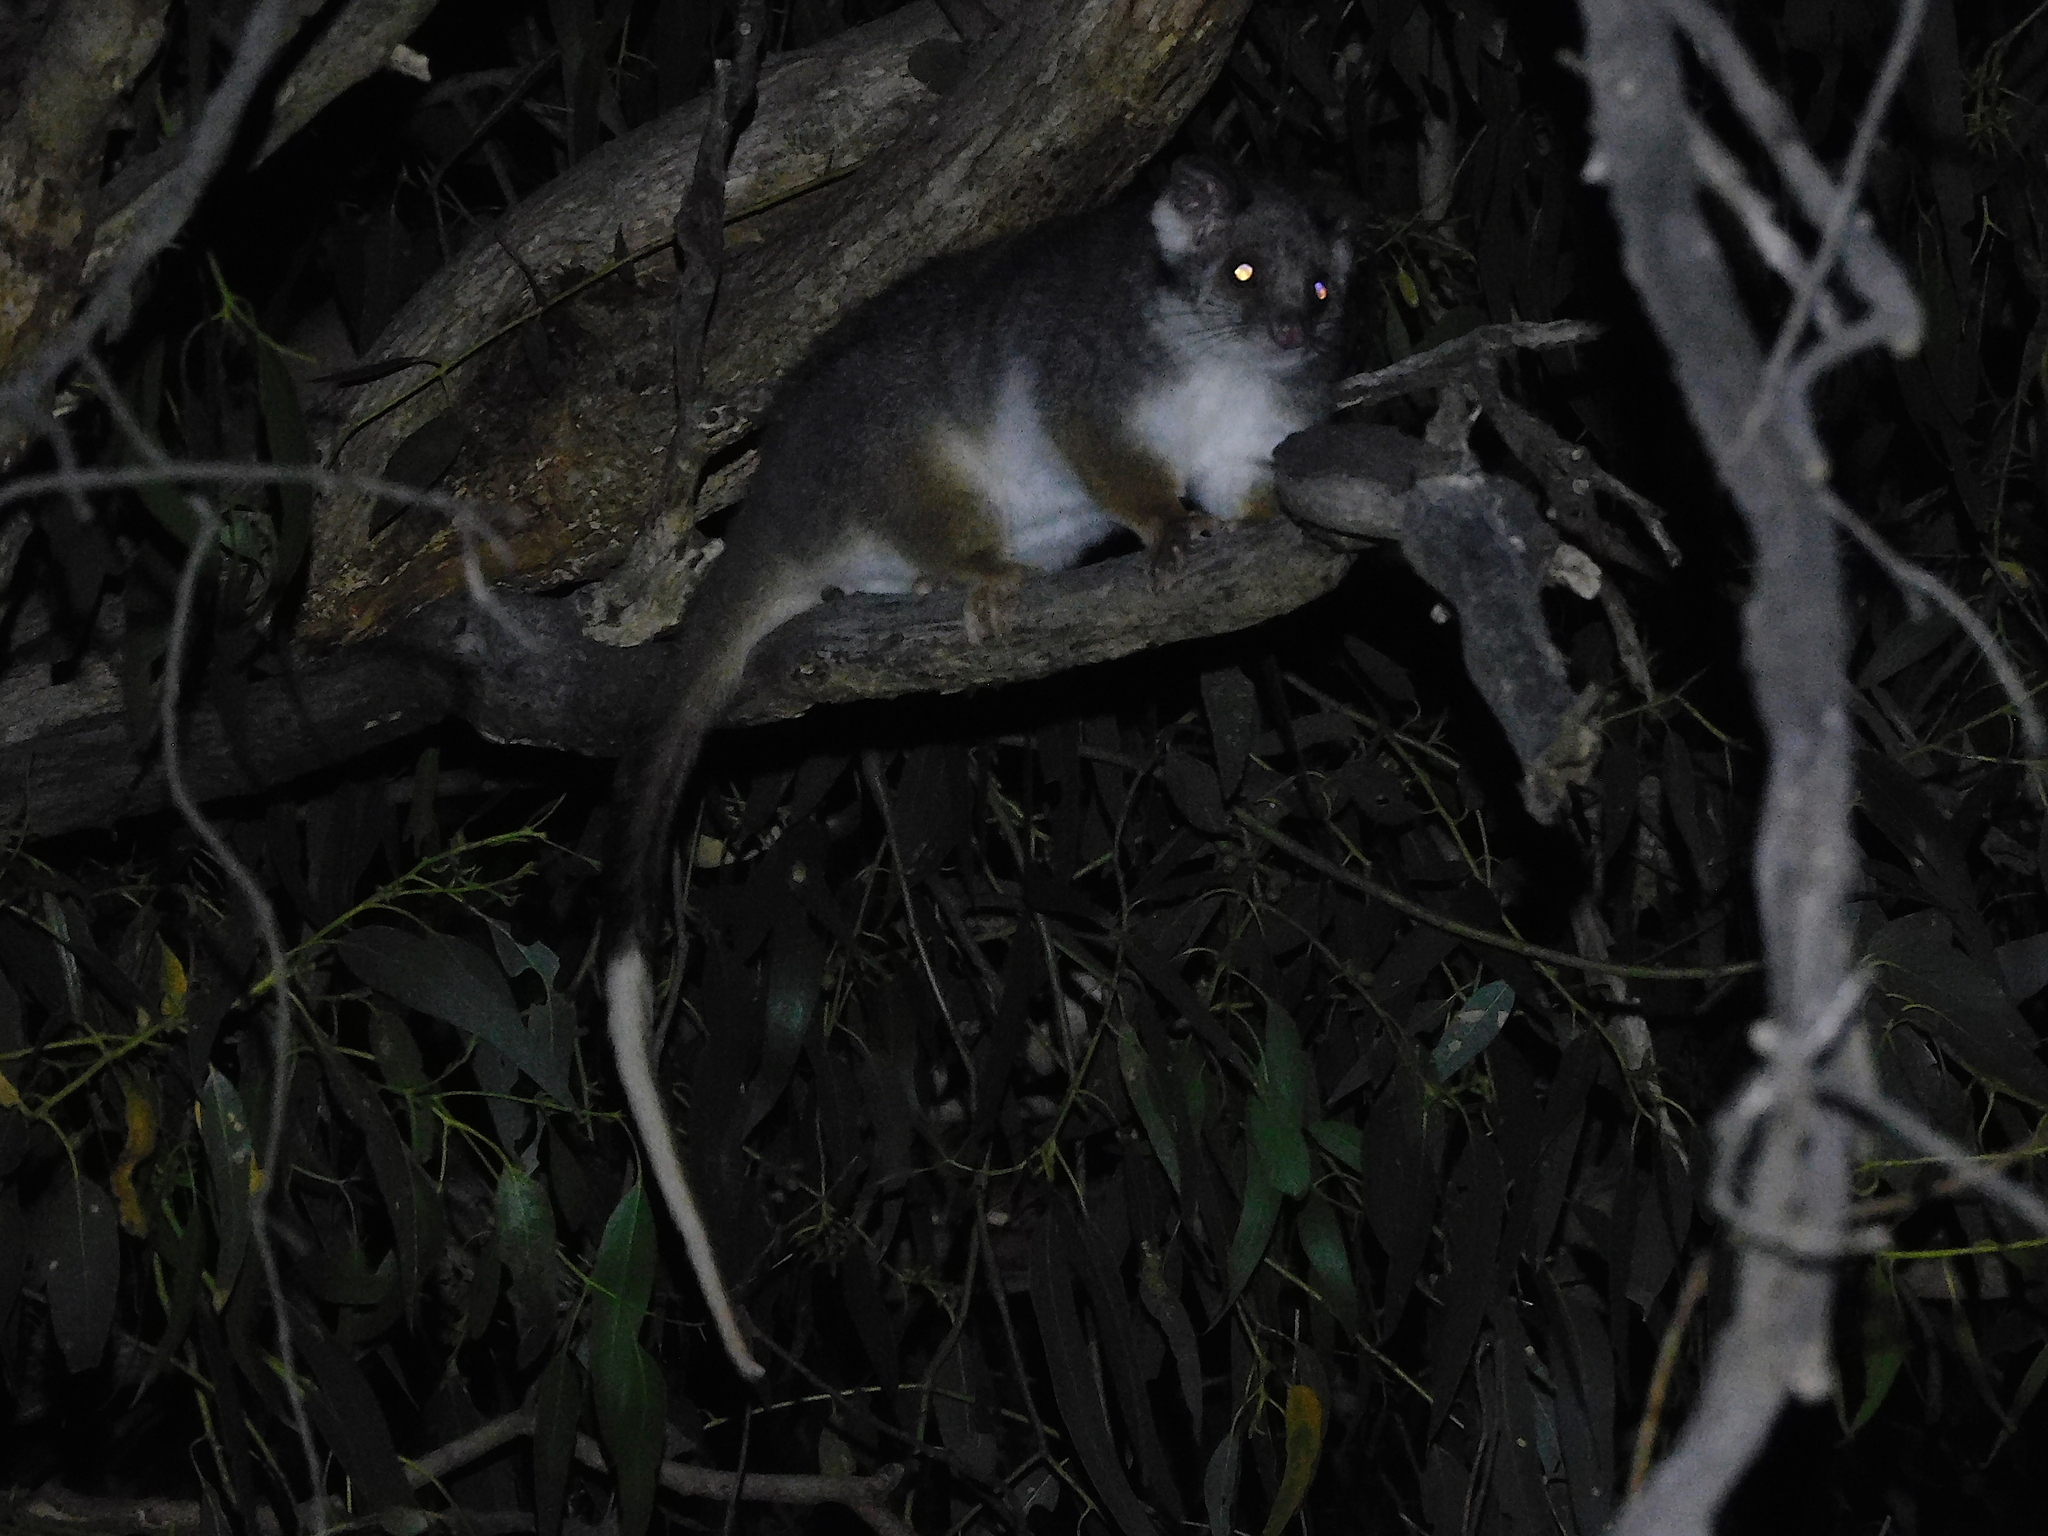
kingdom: Animalia
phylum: Chordata
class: Mammalia
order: Diprotodontia
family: Pseudocheiridae
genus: Pseudocheirus
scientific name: Pseudocheirus peregrinus
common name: Common ringtail possum
